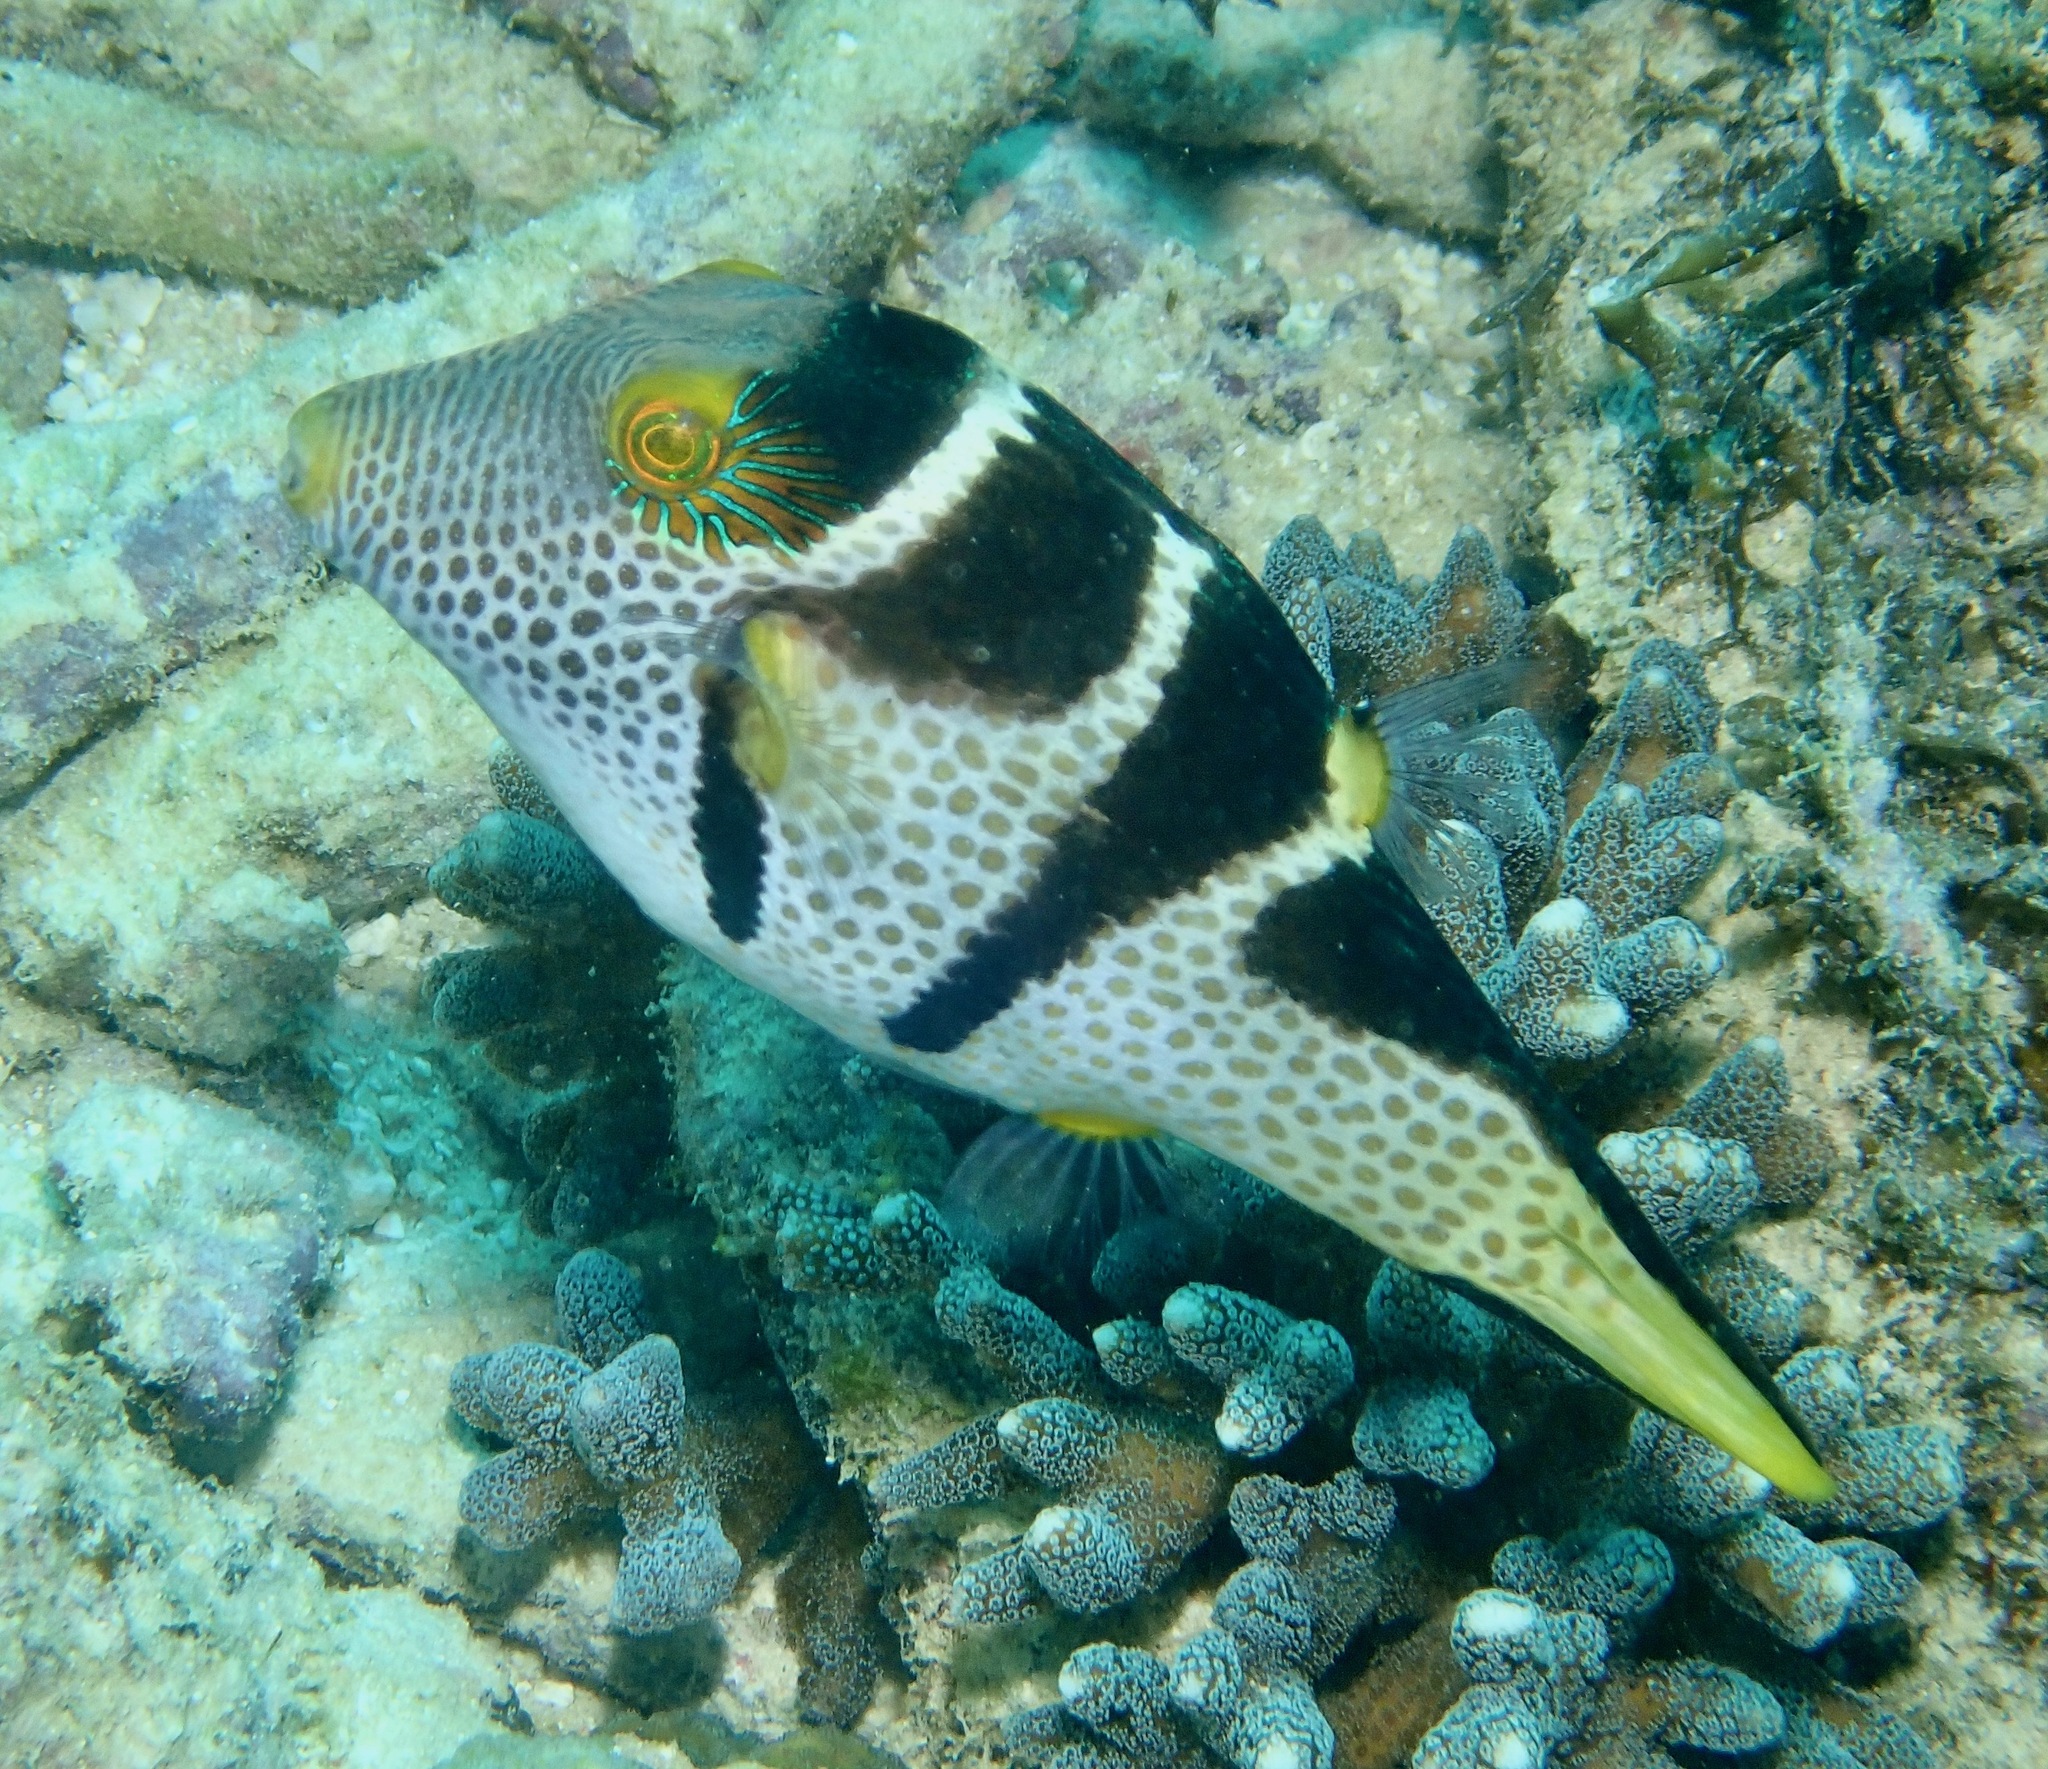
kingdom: Animalia
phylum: Chordata
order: Tetraodontiformes
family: Tetraodontidae
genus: Canthigaster
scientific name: Canthigaster valentini
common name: Banded toby
